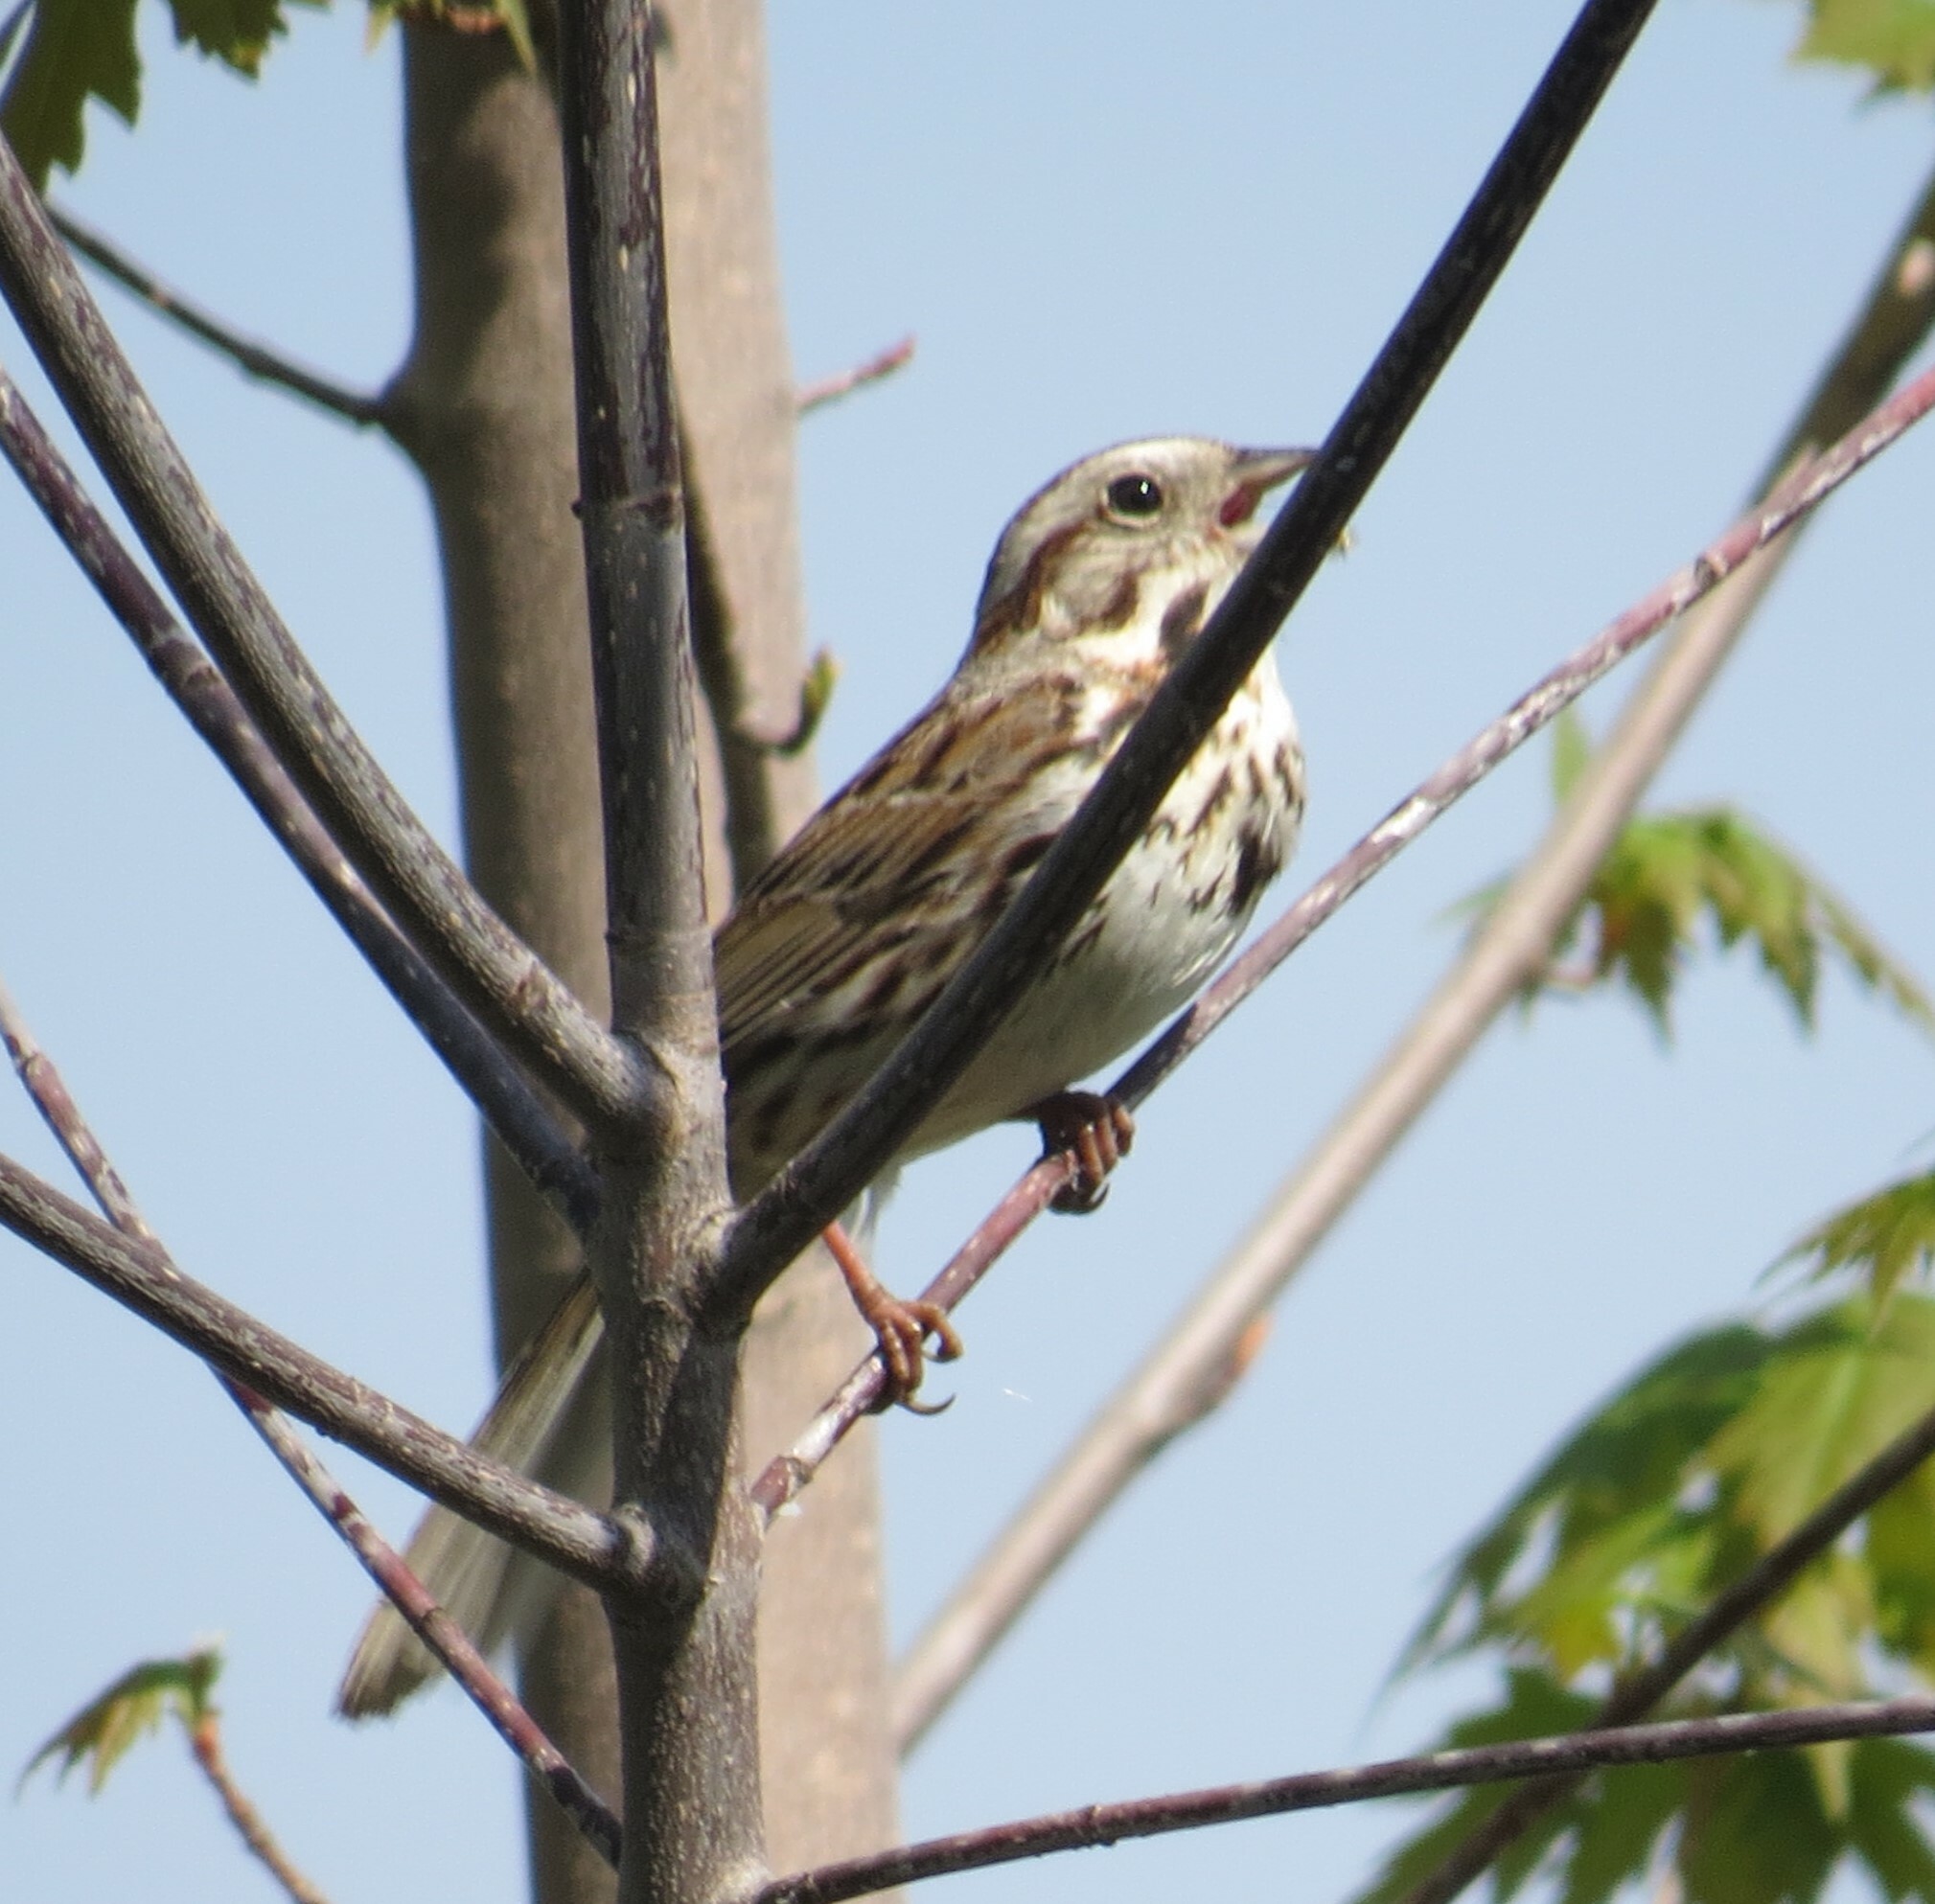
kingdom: Animalia
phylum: Chordata
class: Aves
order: Passeriformes
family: Passerellidae
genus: Melospiza
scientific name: Melospiza melodia
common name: Song sparrow
